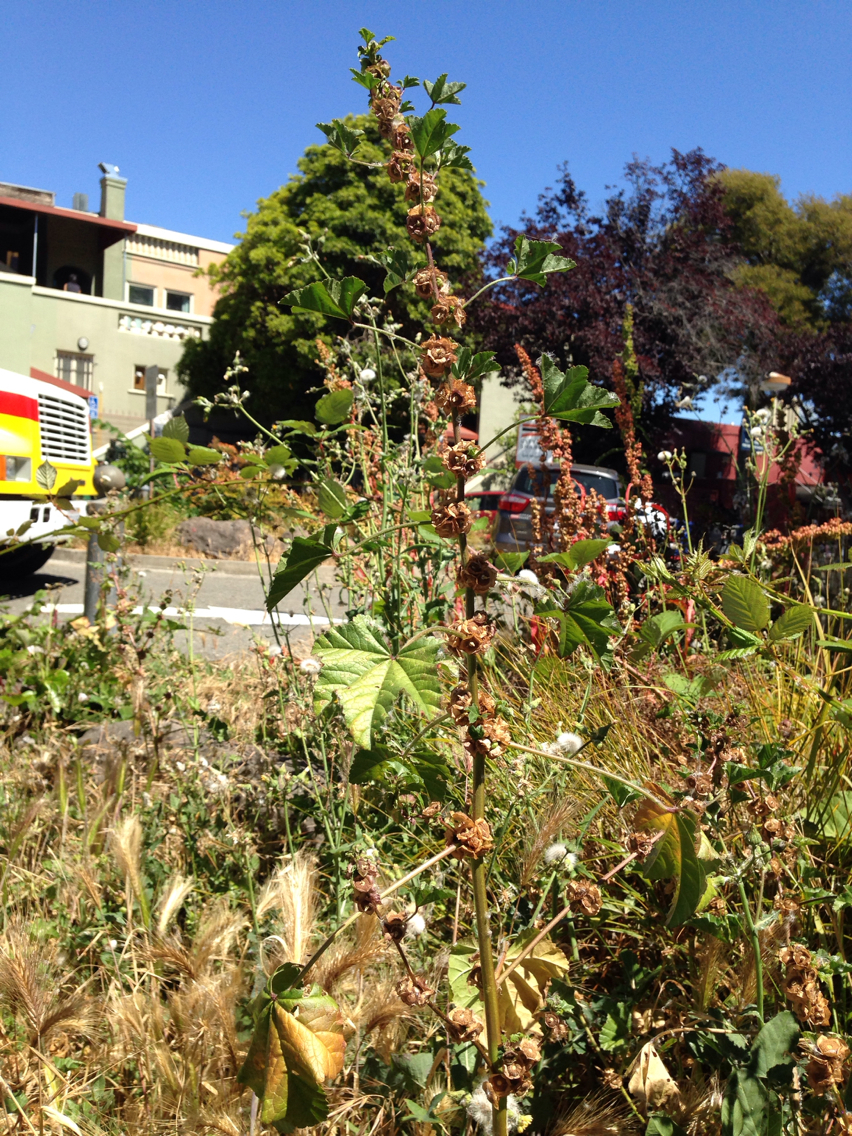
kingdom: Plantae
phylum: Tracheophyta
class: Magnoliopsida
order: Malvales
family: Malvaceae
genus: Malva
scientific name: Malva parviflora
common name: Least mallow
